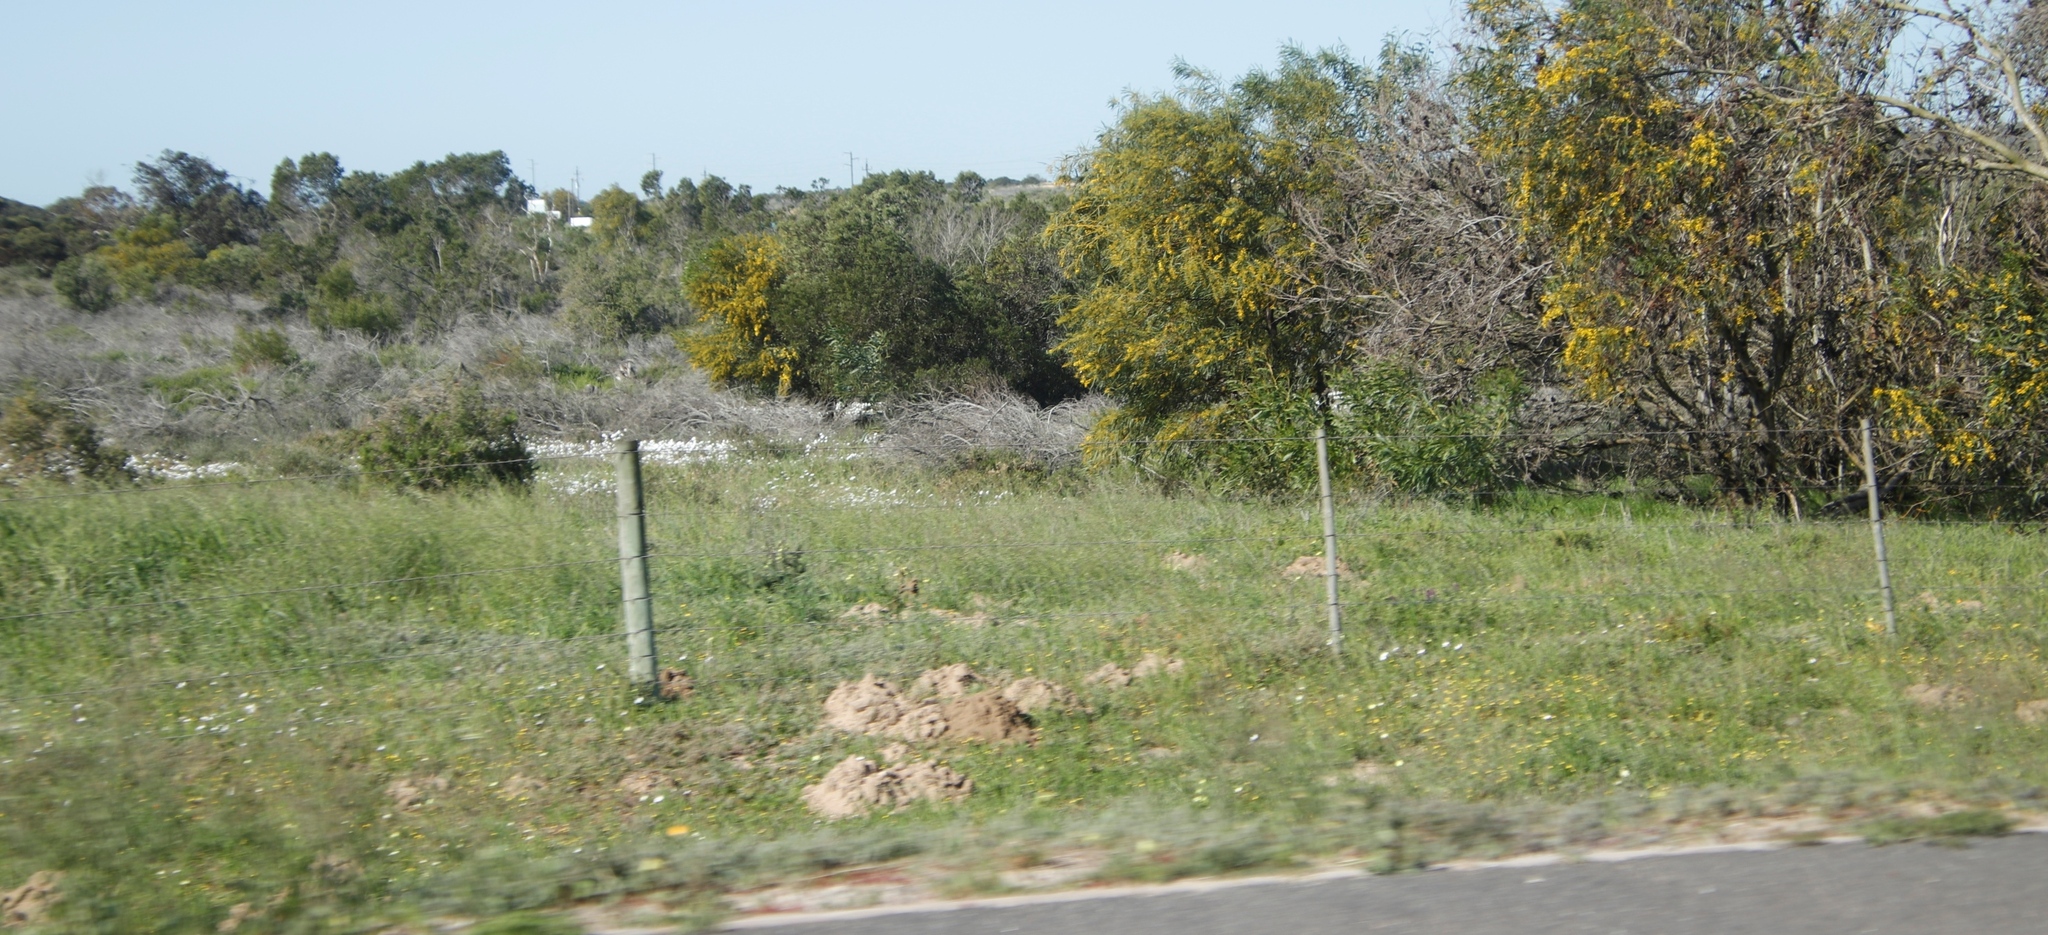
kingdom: Plantae
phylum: Tracheophyta
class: Magnoliopsida
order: Fabales
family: Fabaceae
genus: Acacia
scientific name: Acacia saligna
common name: Orange wattle
